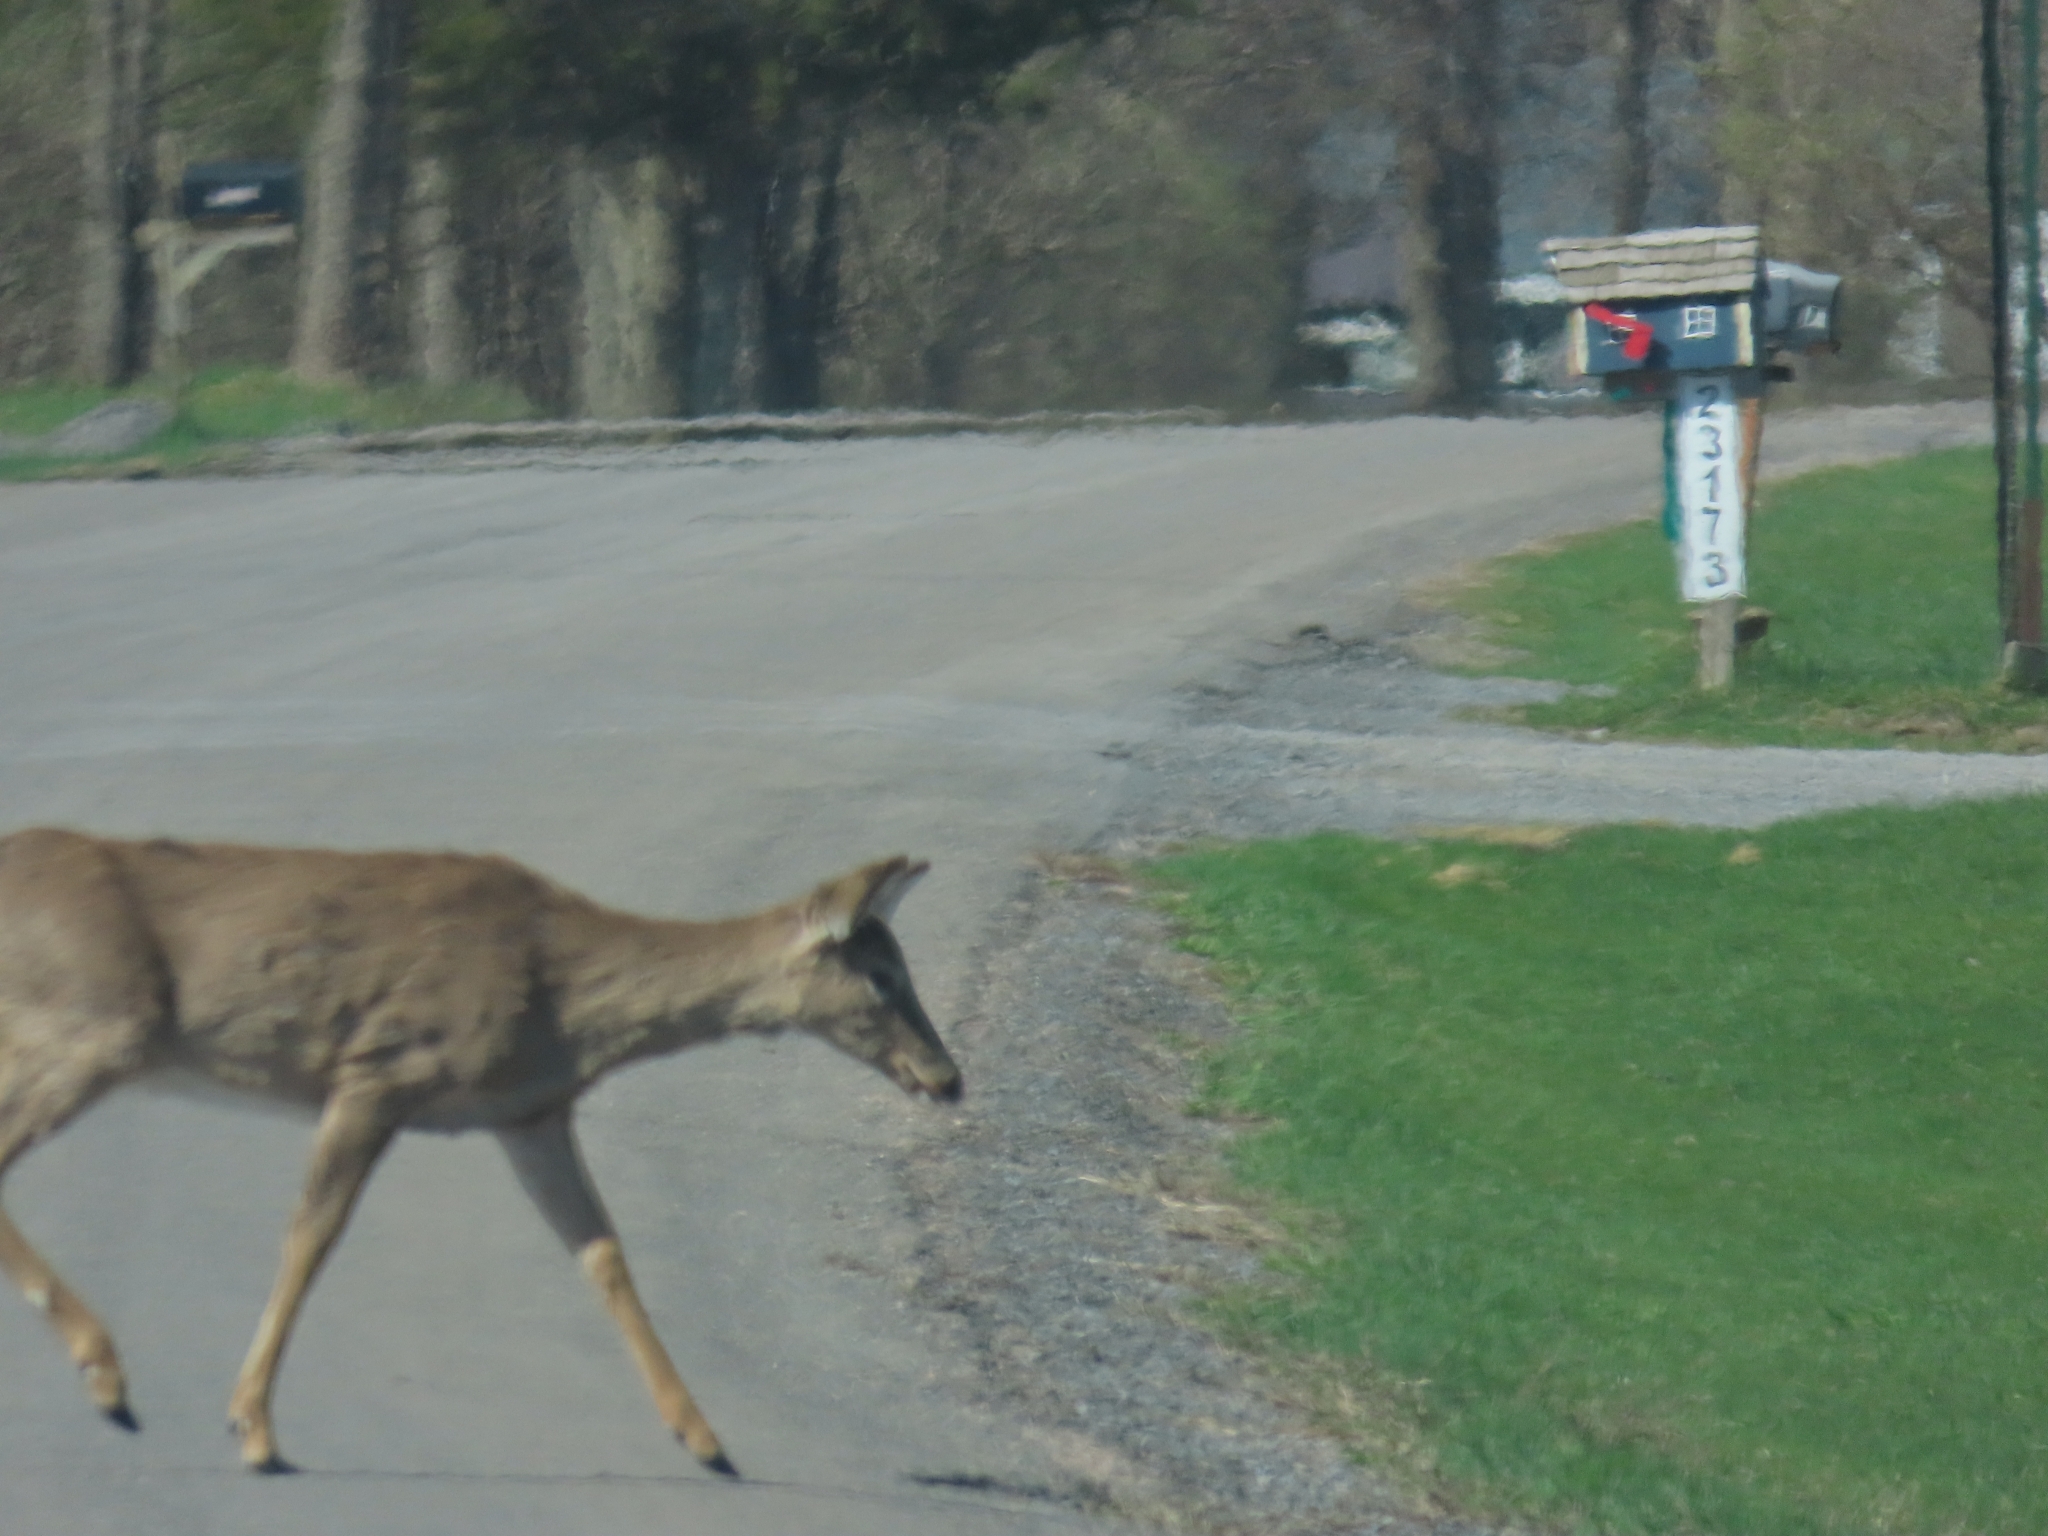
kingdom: Animalia
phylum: Chordata
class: Mammalia
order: Artiodactyla
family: Cervidae
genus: Odocoileus
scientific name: Odocoileus virginianus
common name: White-tailed deer
